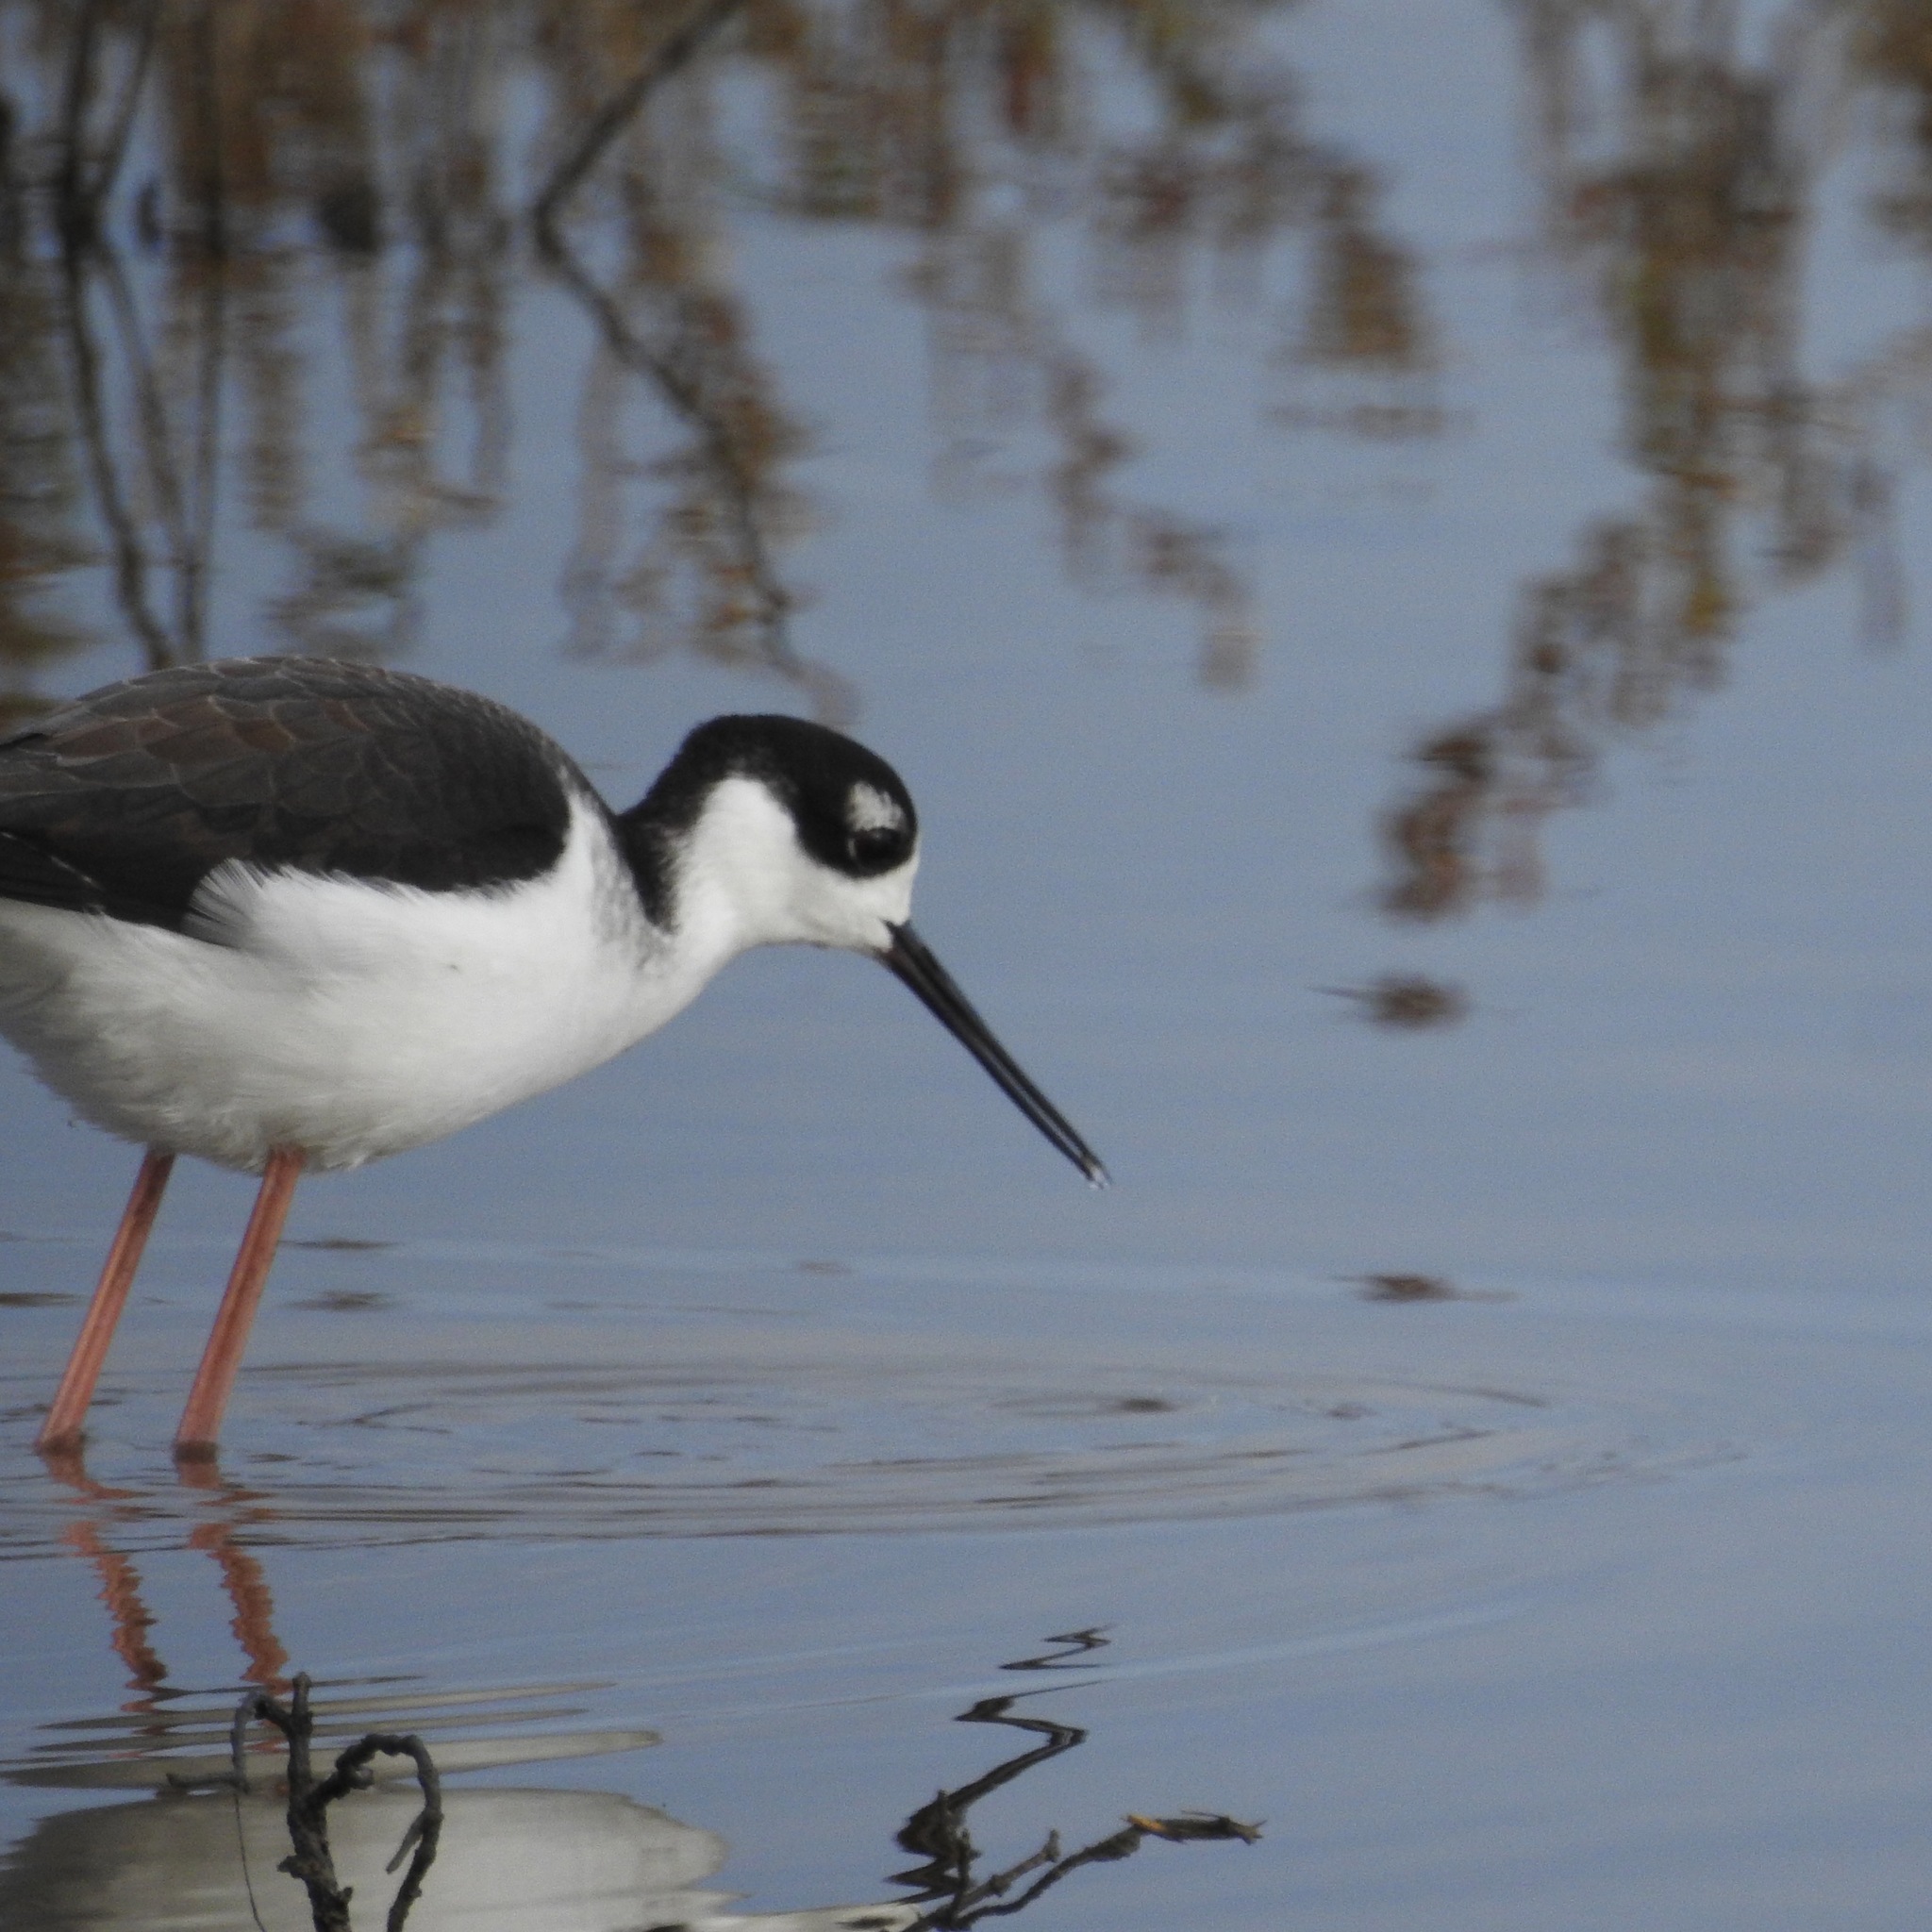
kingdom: Animalia
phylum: Chordata
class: Aves
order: Charadriiformes
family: Recurvirostridae
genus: Himantopus
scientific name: Himantopus mexicanus
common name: Black-necked stilt
